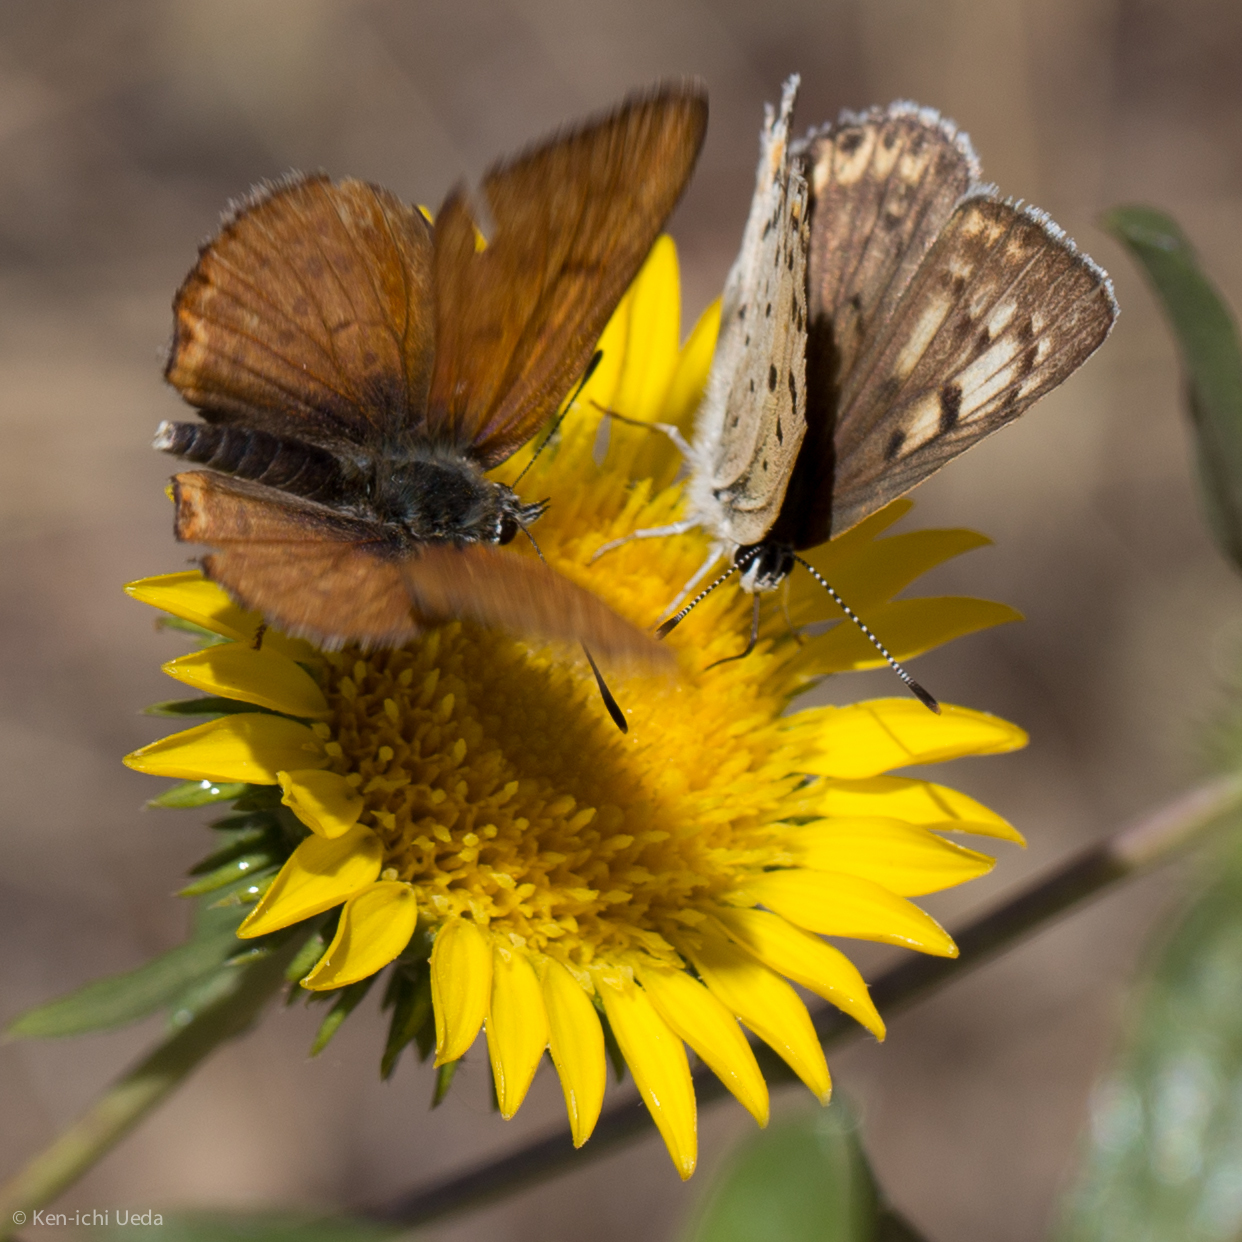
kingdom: Animalia
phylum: Arthropoda
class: Insecta
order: Lepidoptera
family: Lycaenidae
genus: Tharsalea
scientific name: Tharsalea gorgon
